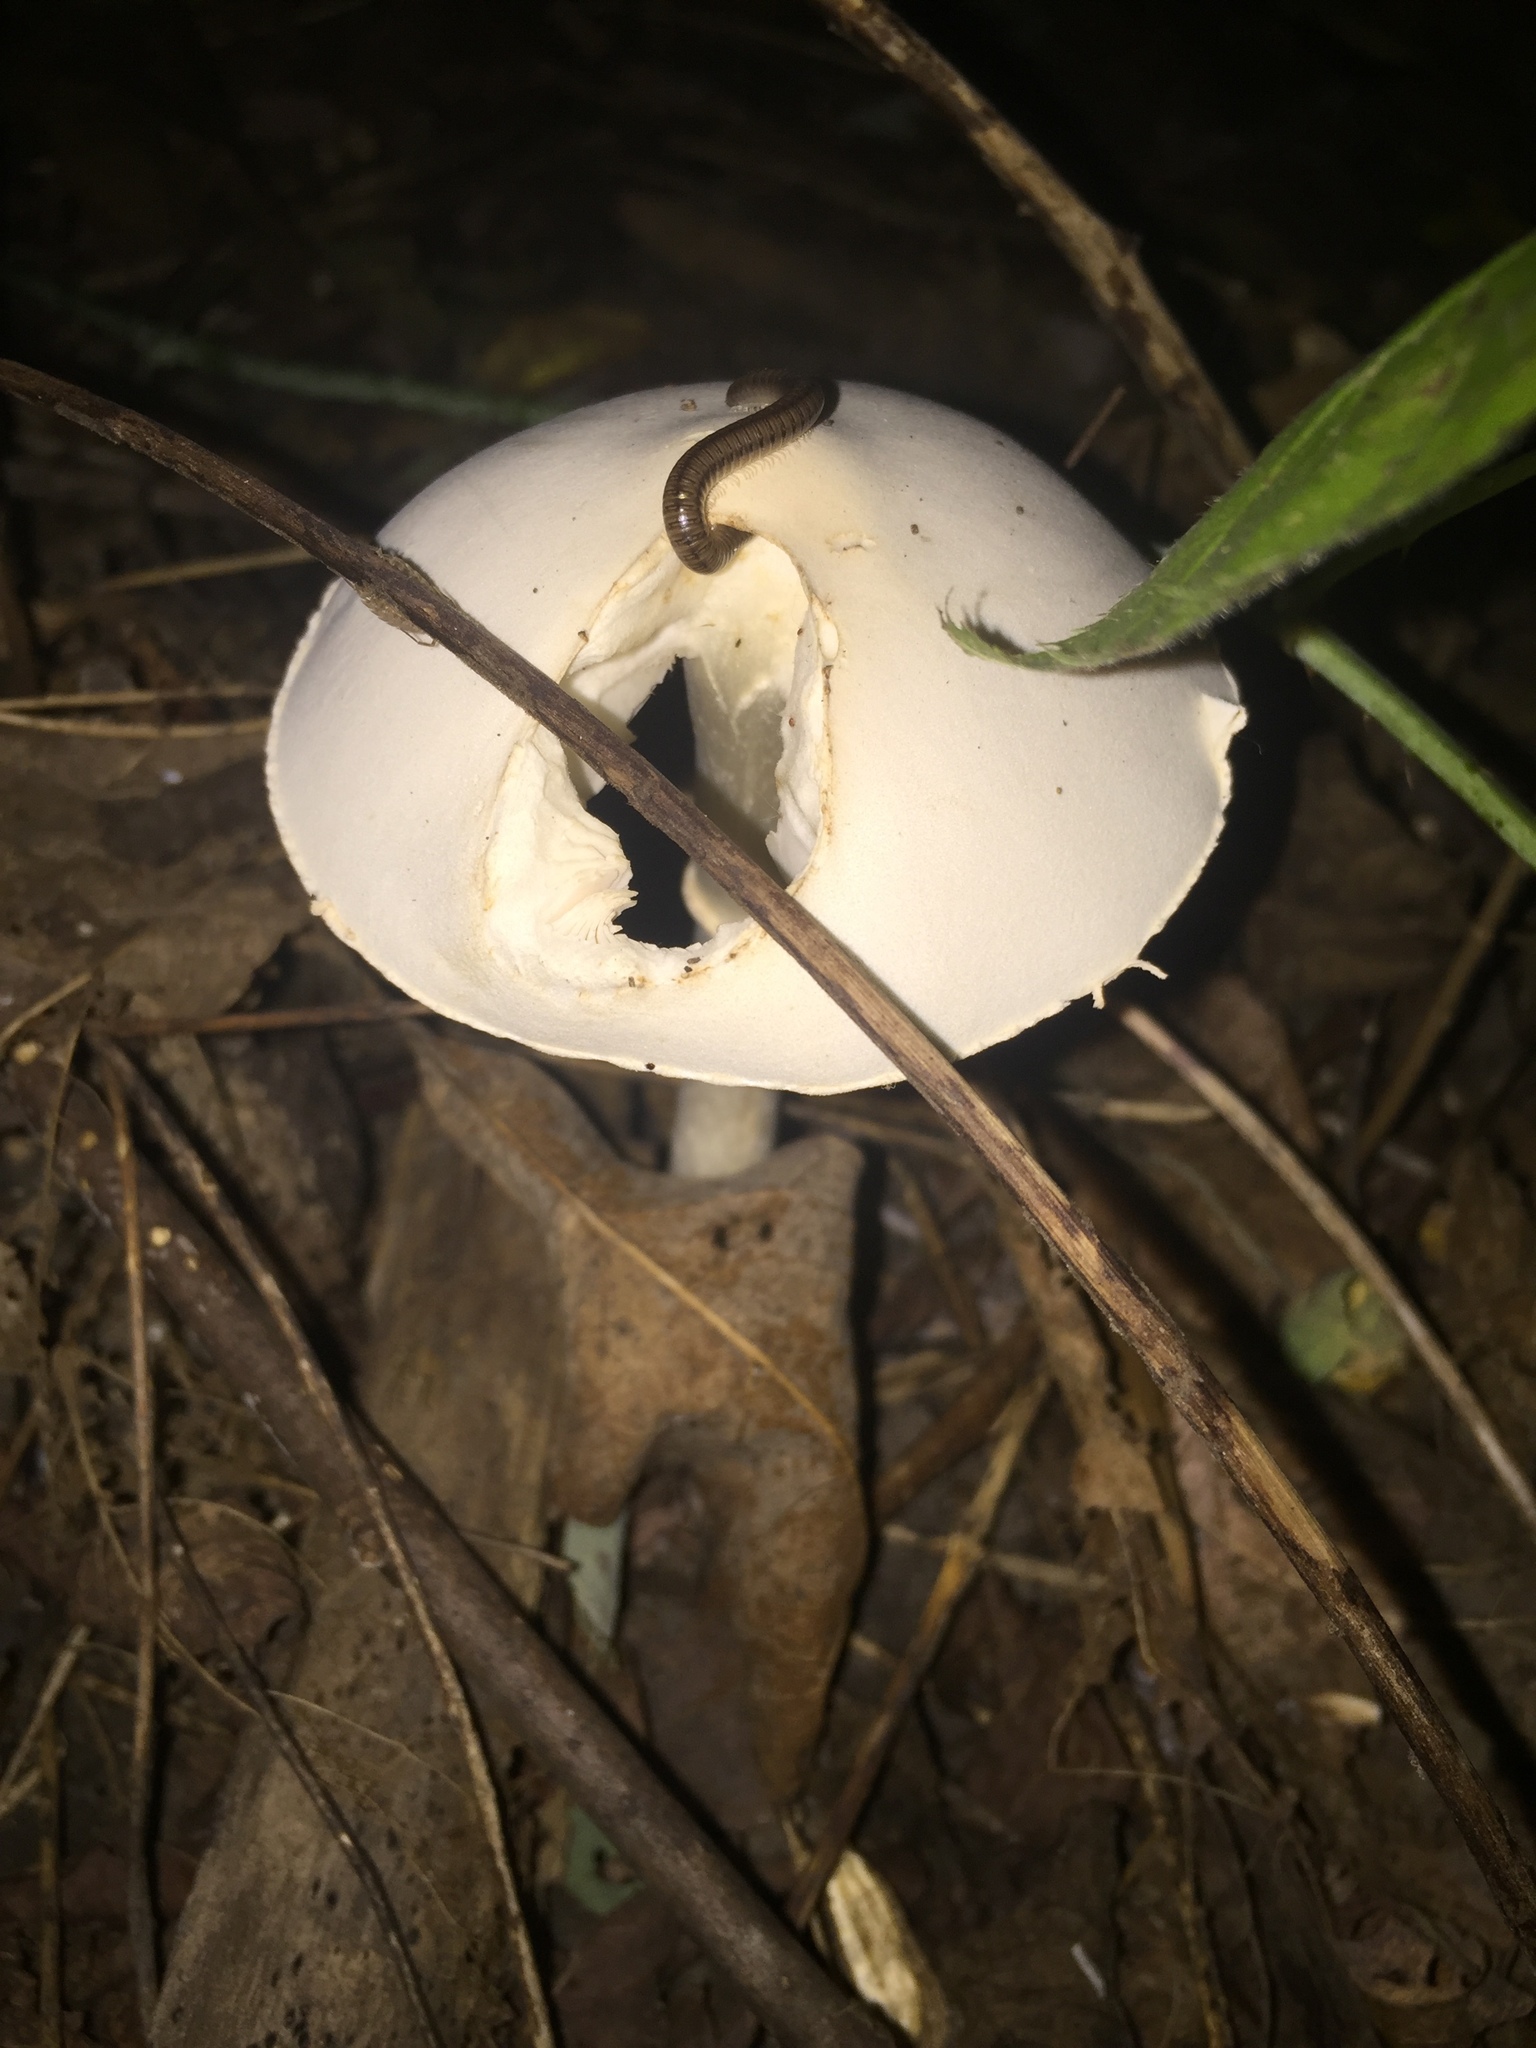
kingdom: Fungi
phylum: Basidiomycota
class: Agaricomycetes
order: Agaricales
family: Agaricaceae
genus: Leucoagaricus
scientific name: Leucoagaricus leucothites
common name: White dapperling
